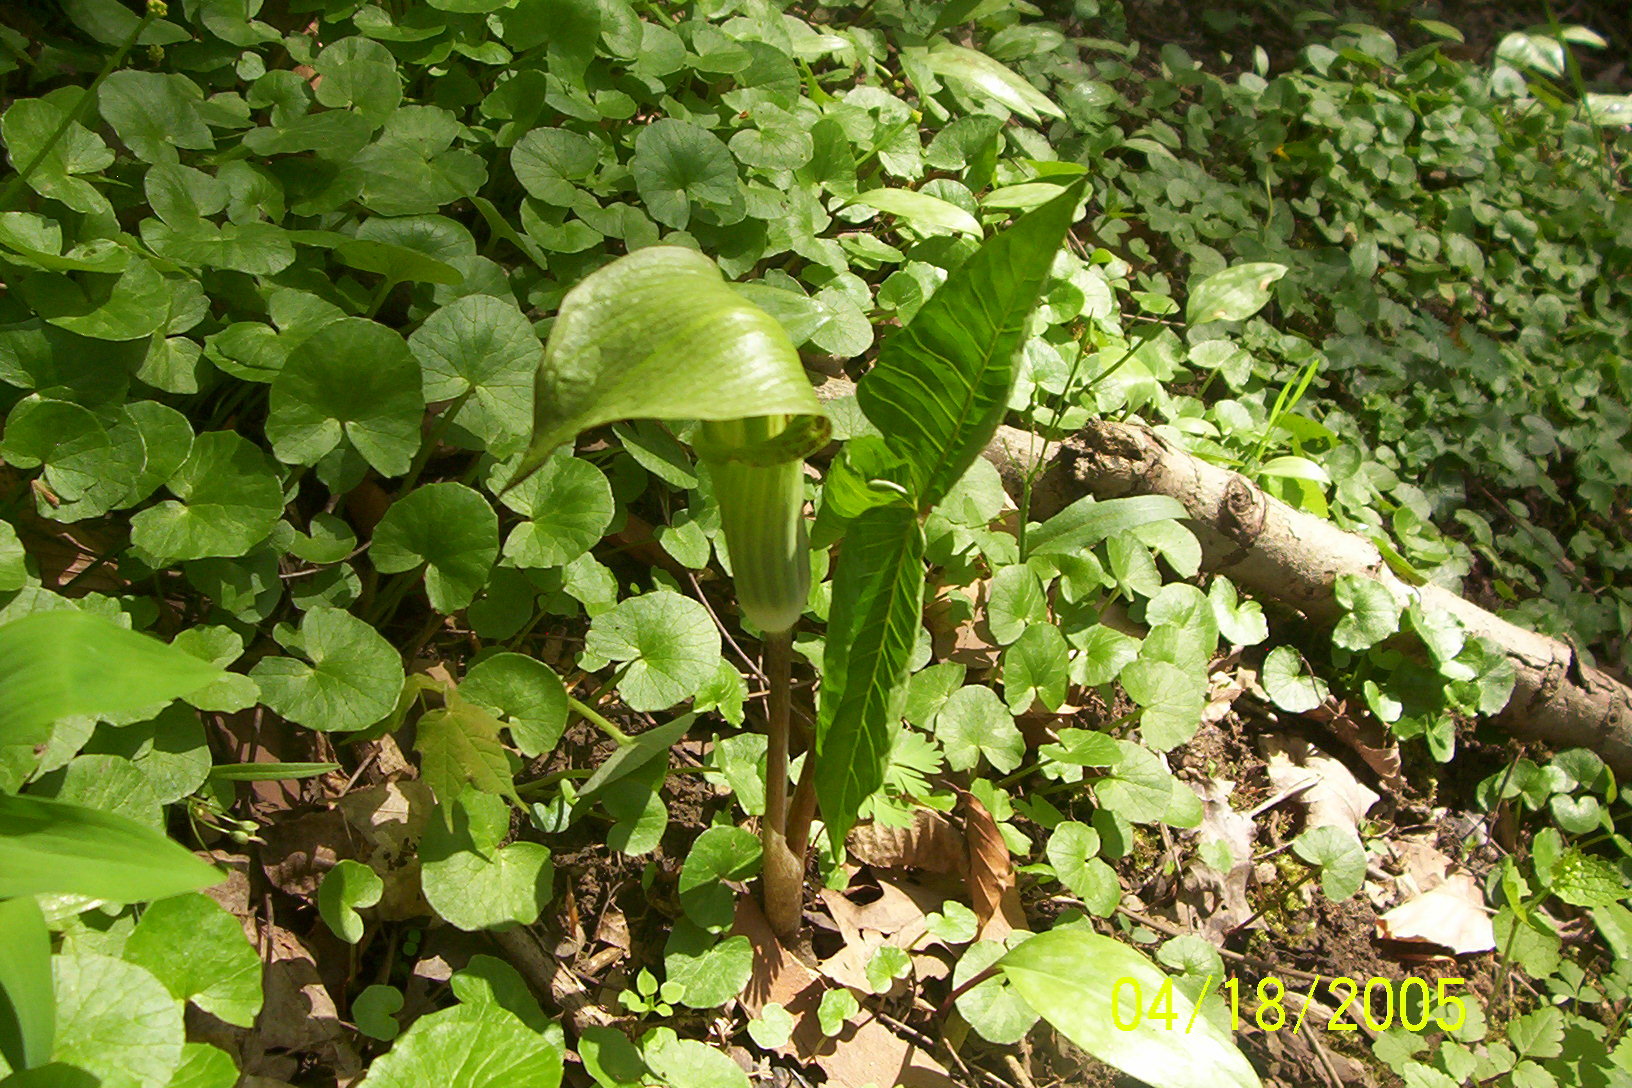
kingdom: Plantae
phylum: Tracheophyta
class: Liliopsida
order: Alismatales
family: Araceae
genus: Arisaema
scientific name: Arisaema triphyllum
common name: Jack-in-the-pulpit
